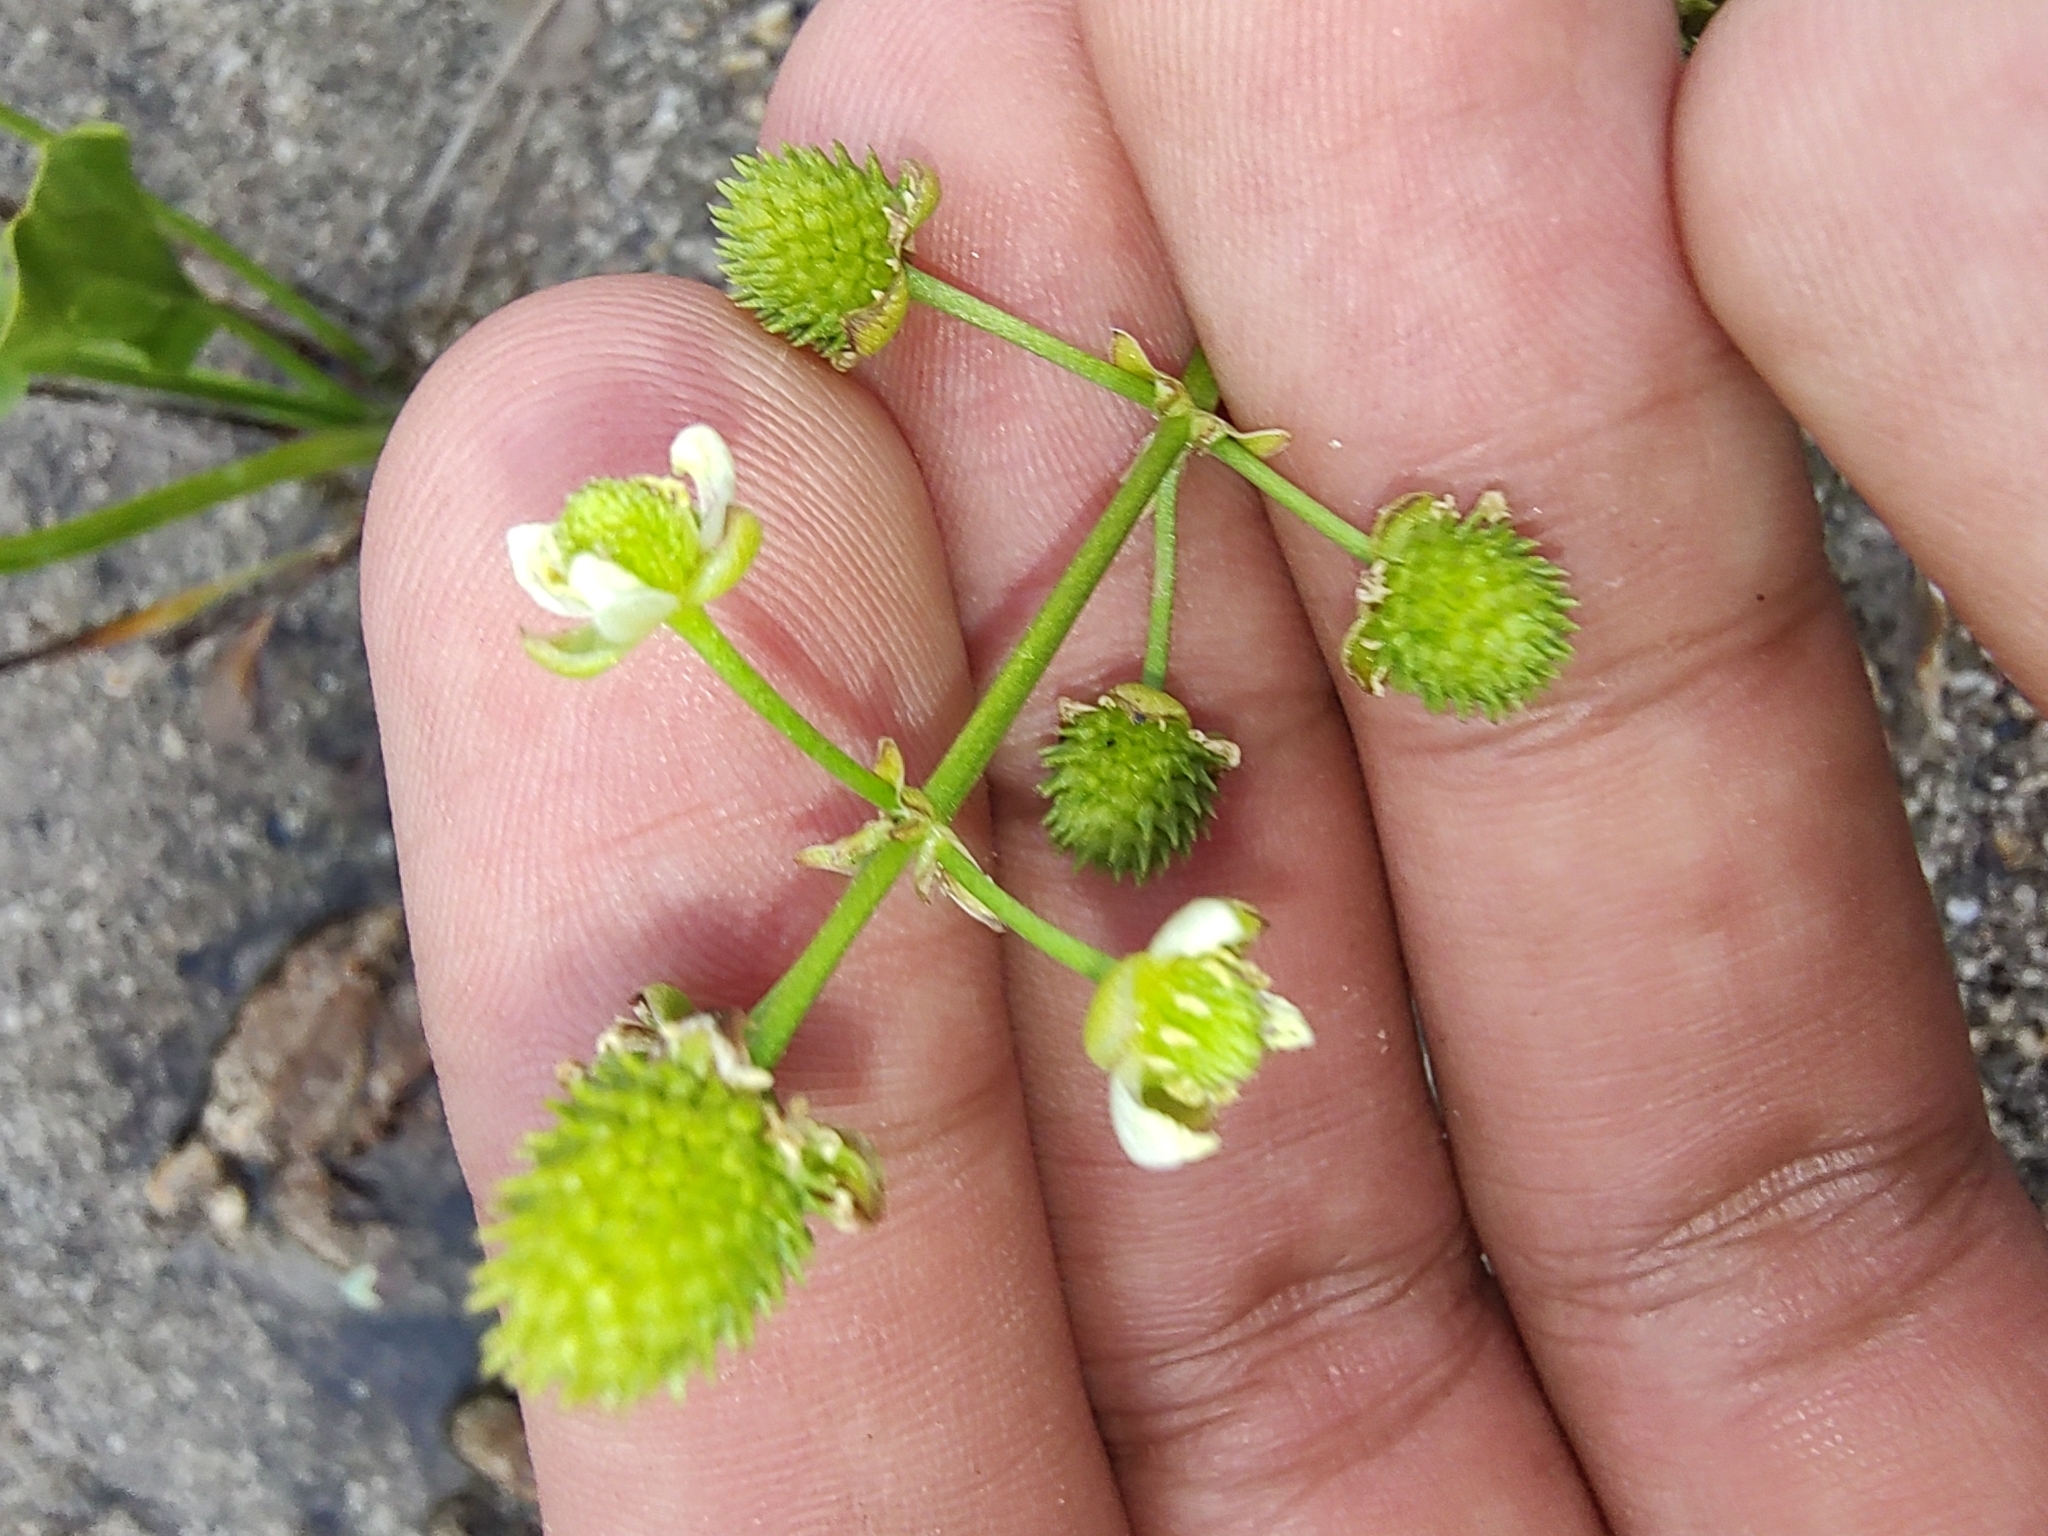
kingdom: Plantae
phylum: Tracheophyta
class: Liliopsida
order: Alismatales
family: Alismataceae
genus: Echinodorus
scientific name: Echinodorus berteroi
